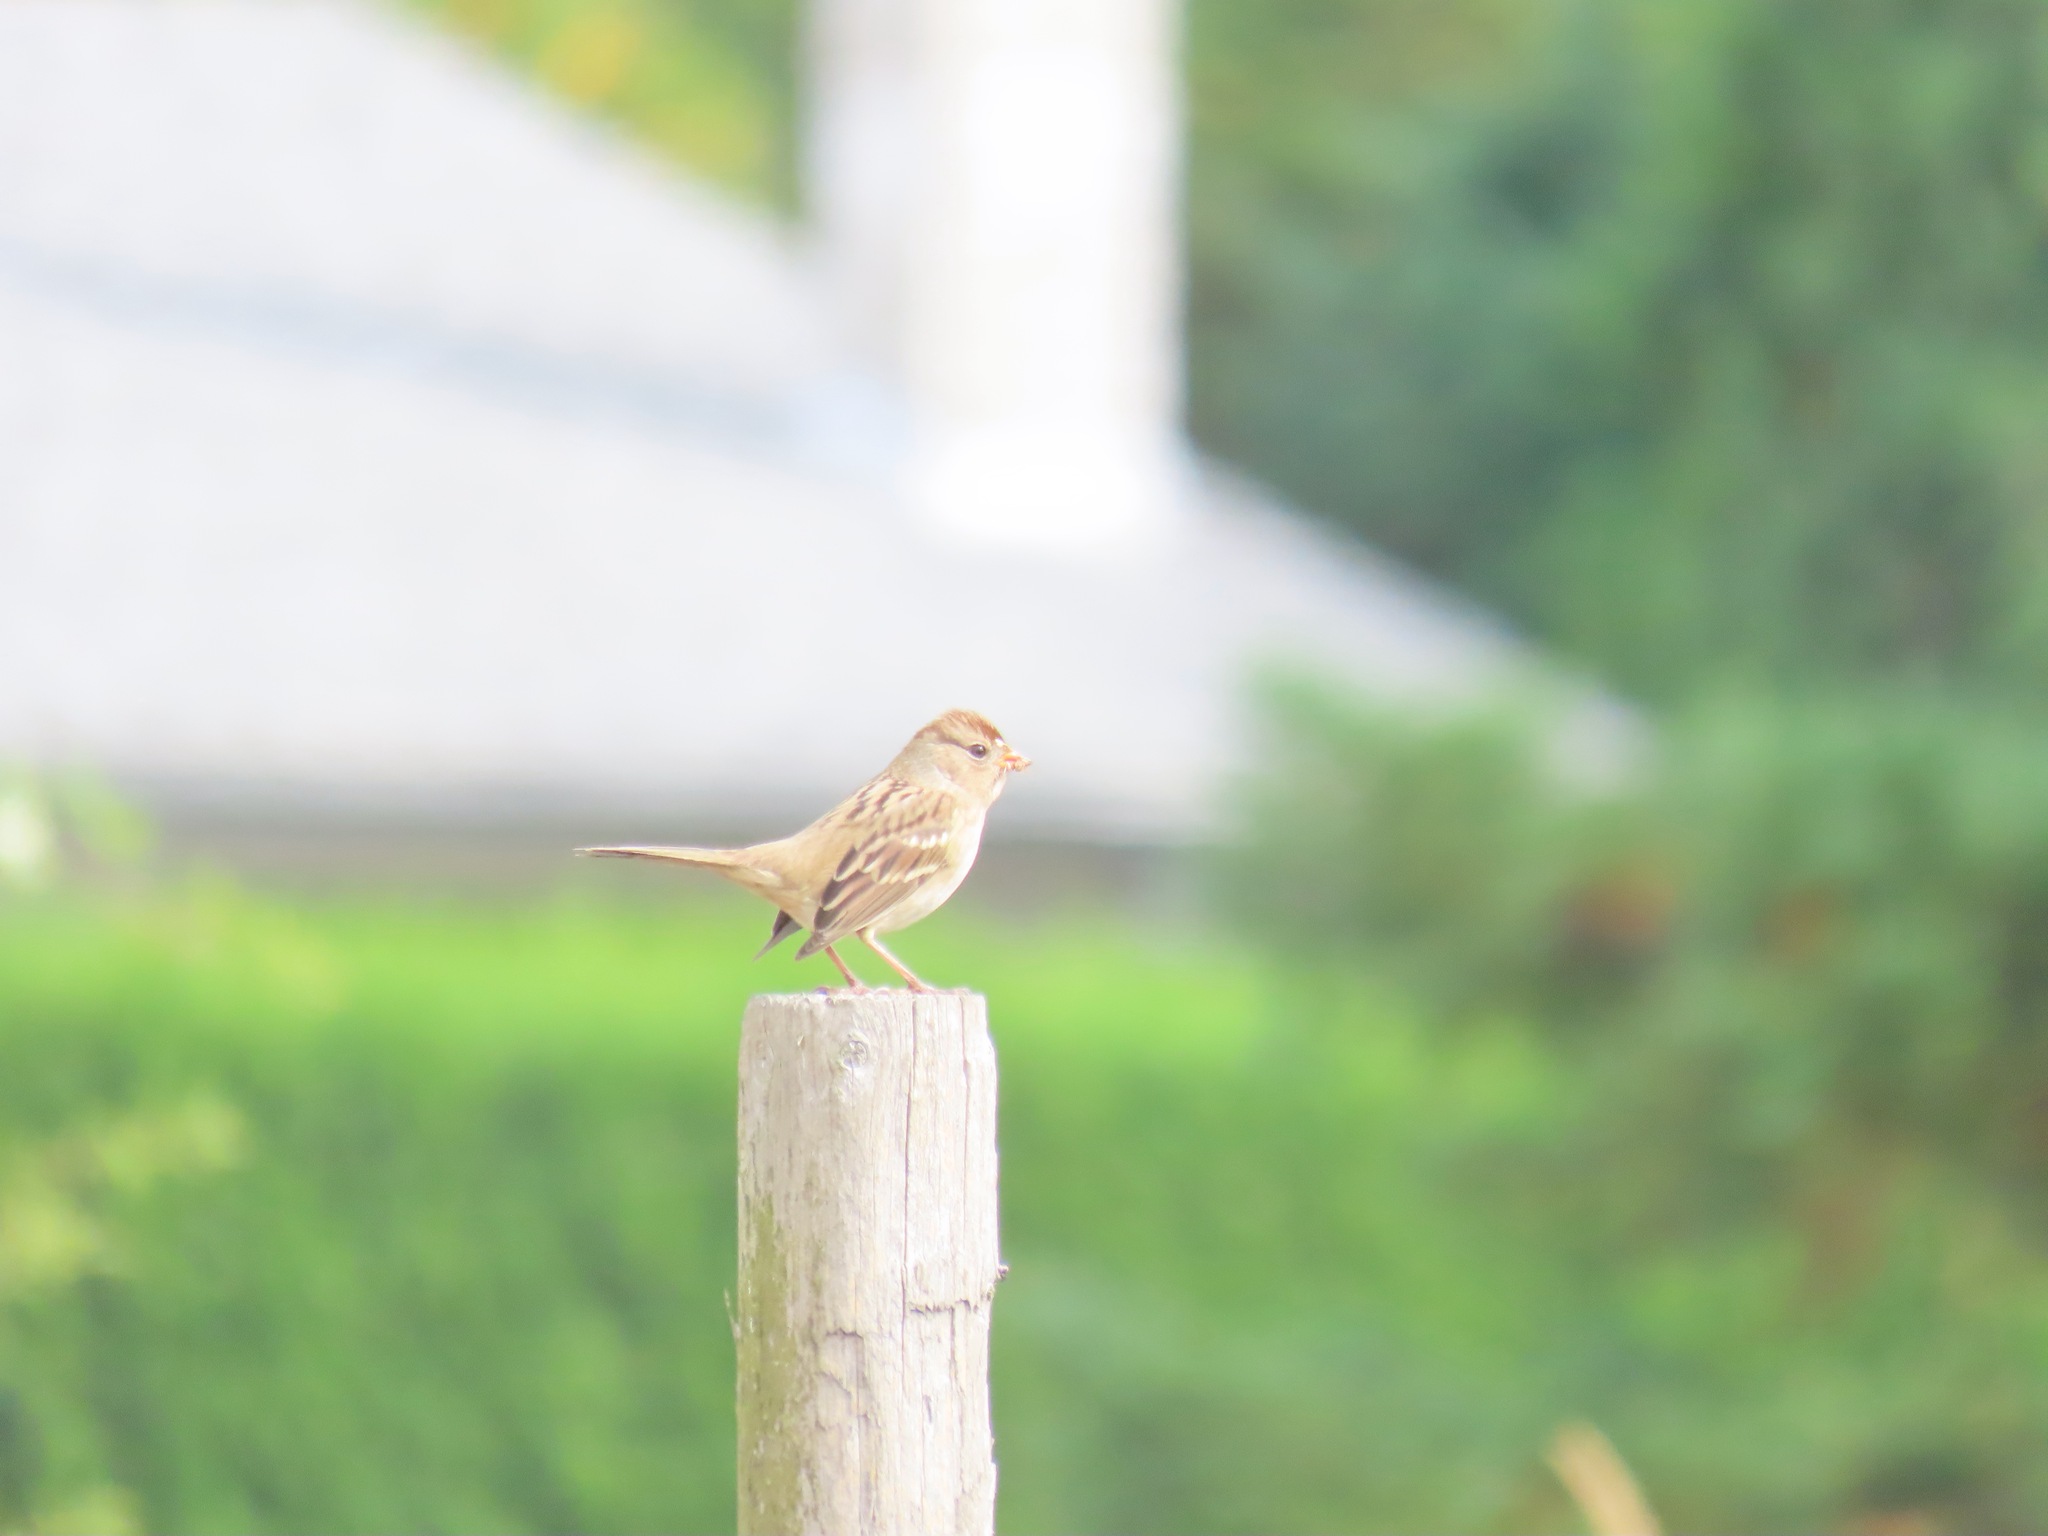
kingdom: Animalia
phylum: Chordata
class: Aves
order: Passeriformes
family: Passerellidae
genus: Zonotrichia
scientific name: Zonotrichia leucophrys
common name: White-crowned sparrow
